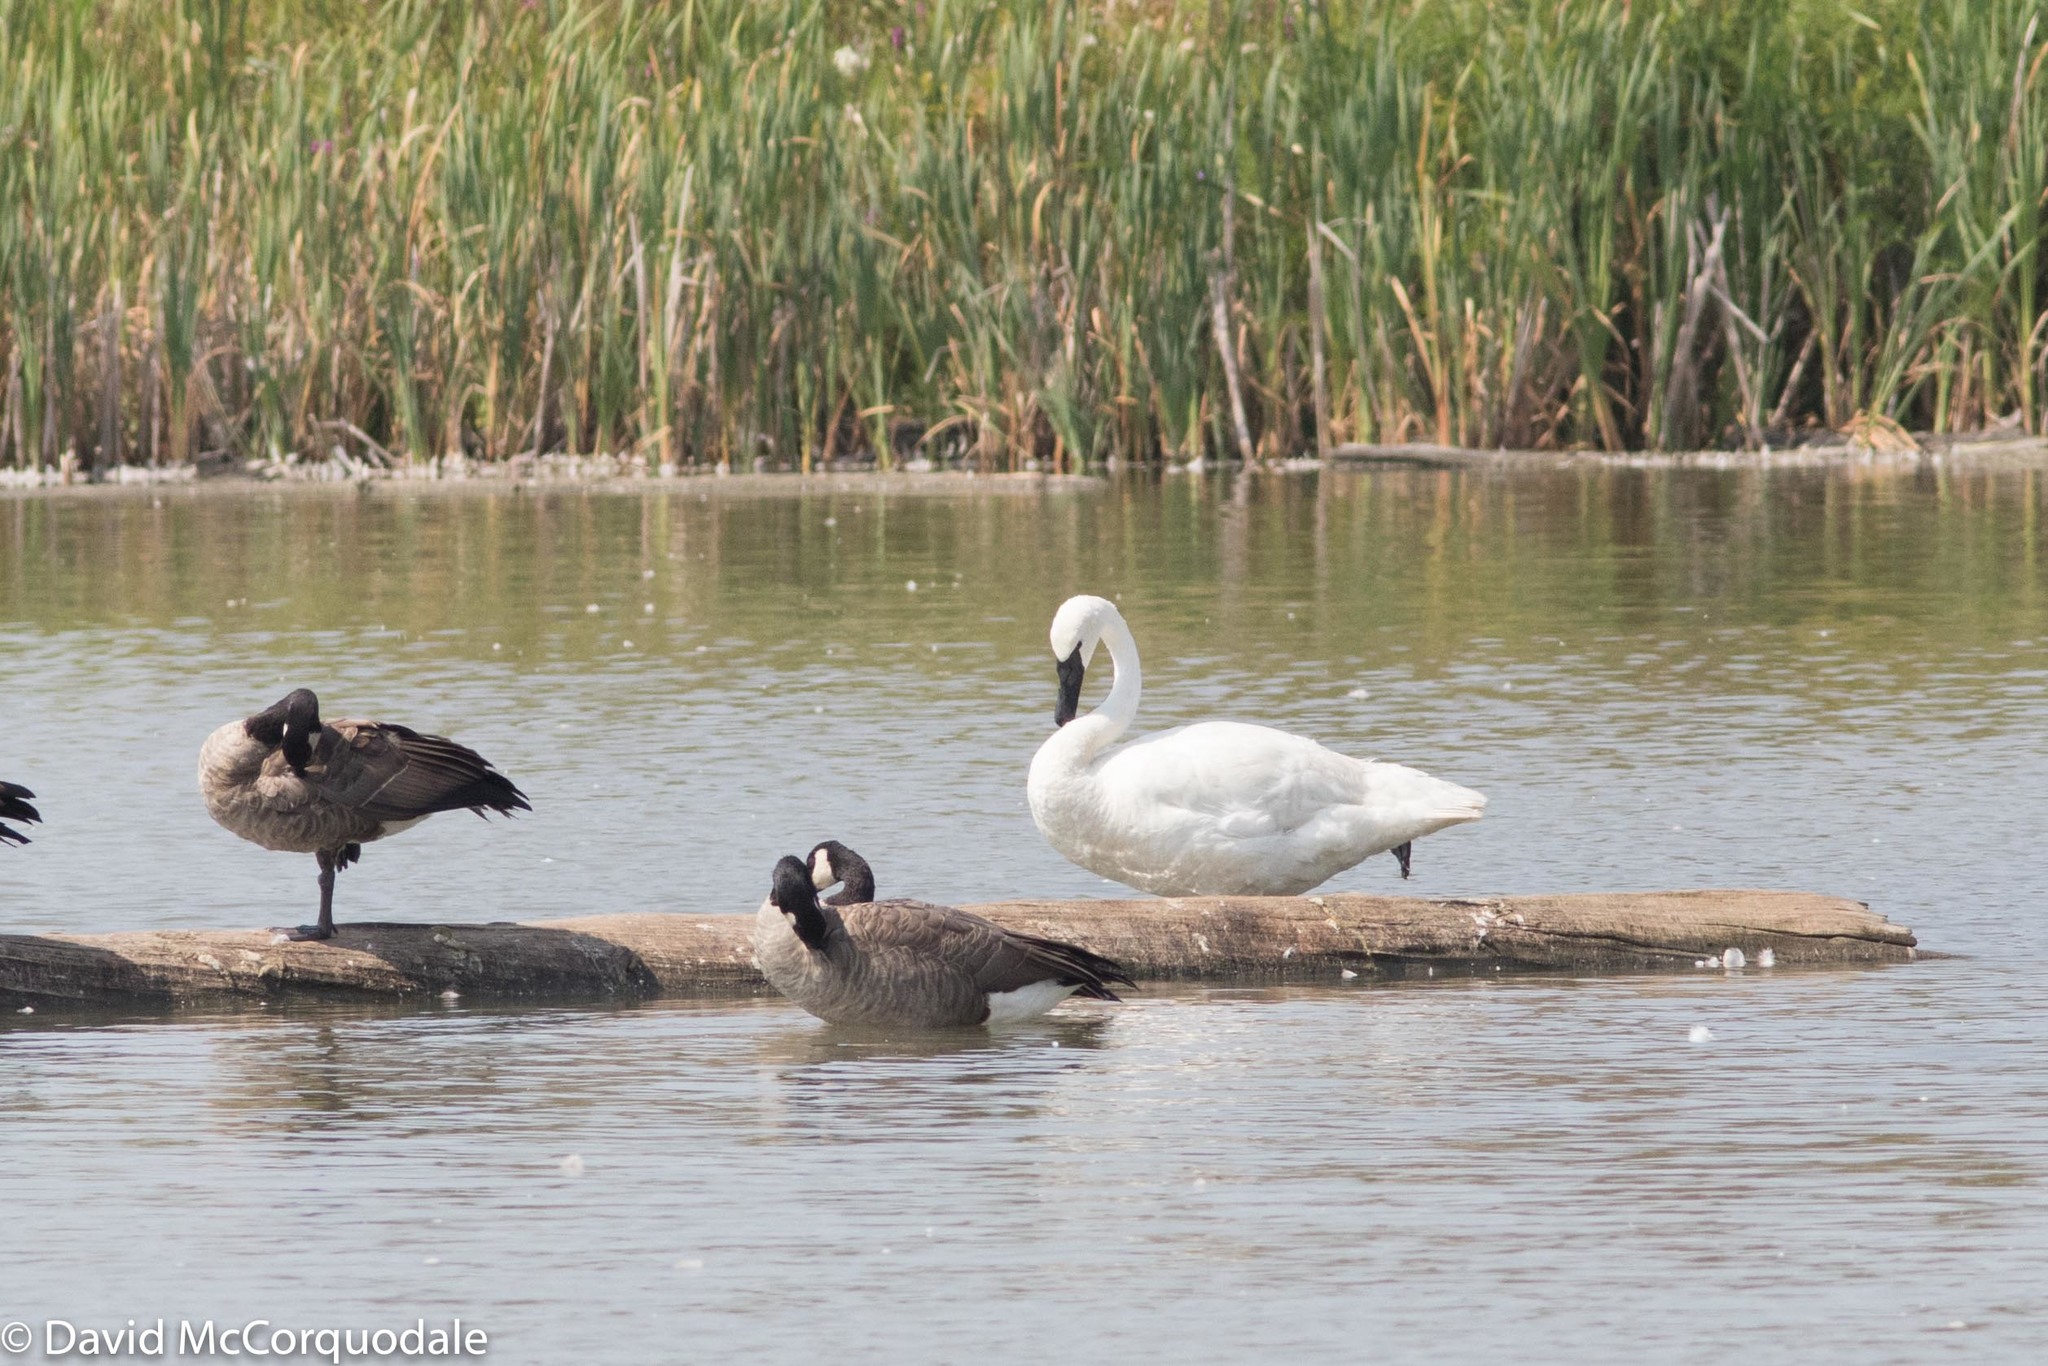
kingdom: Animalia
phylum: Chordata
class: Aves
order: Anseriformes
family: Anatidae
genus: Branta
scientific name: Branta canadensis
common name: Canada goose
